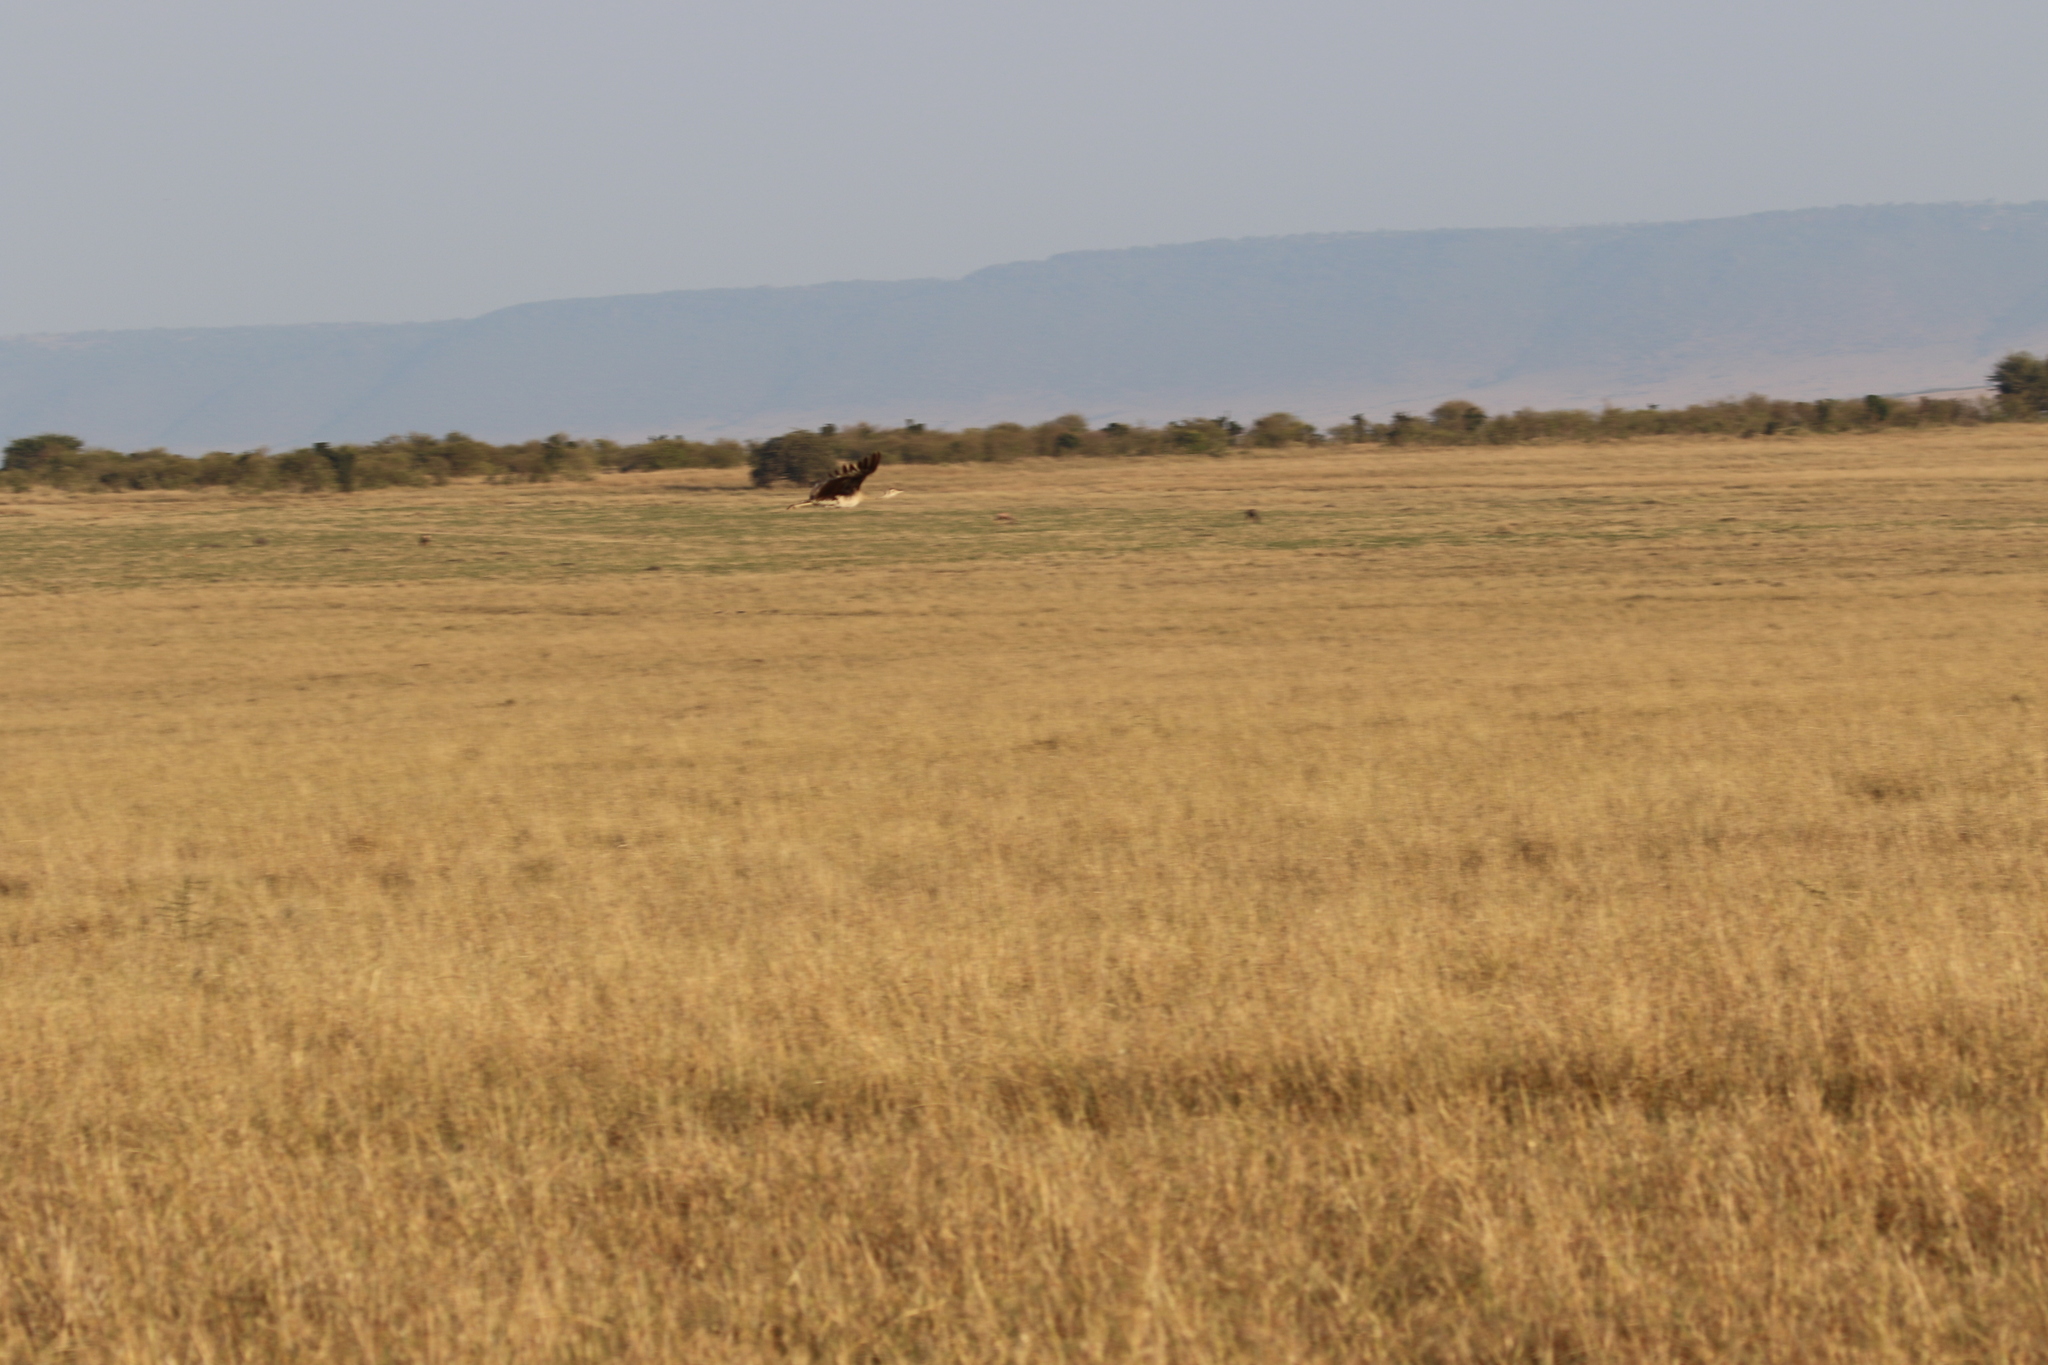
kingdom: Animalia
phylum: Chordata
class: Aves
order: Otidiformes
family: Otididae
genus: Ardeotis
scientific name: Ardeotis kori
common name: Kori bustard
